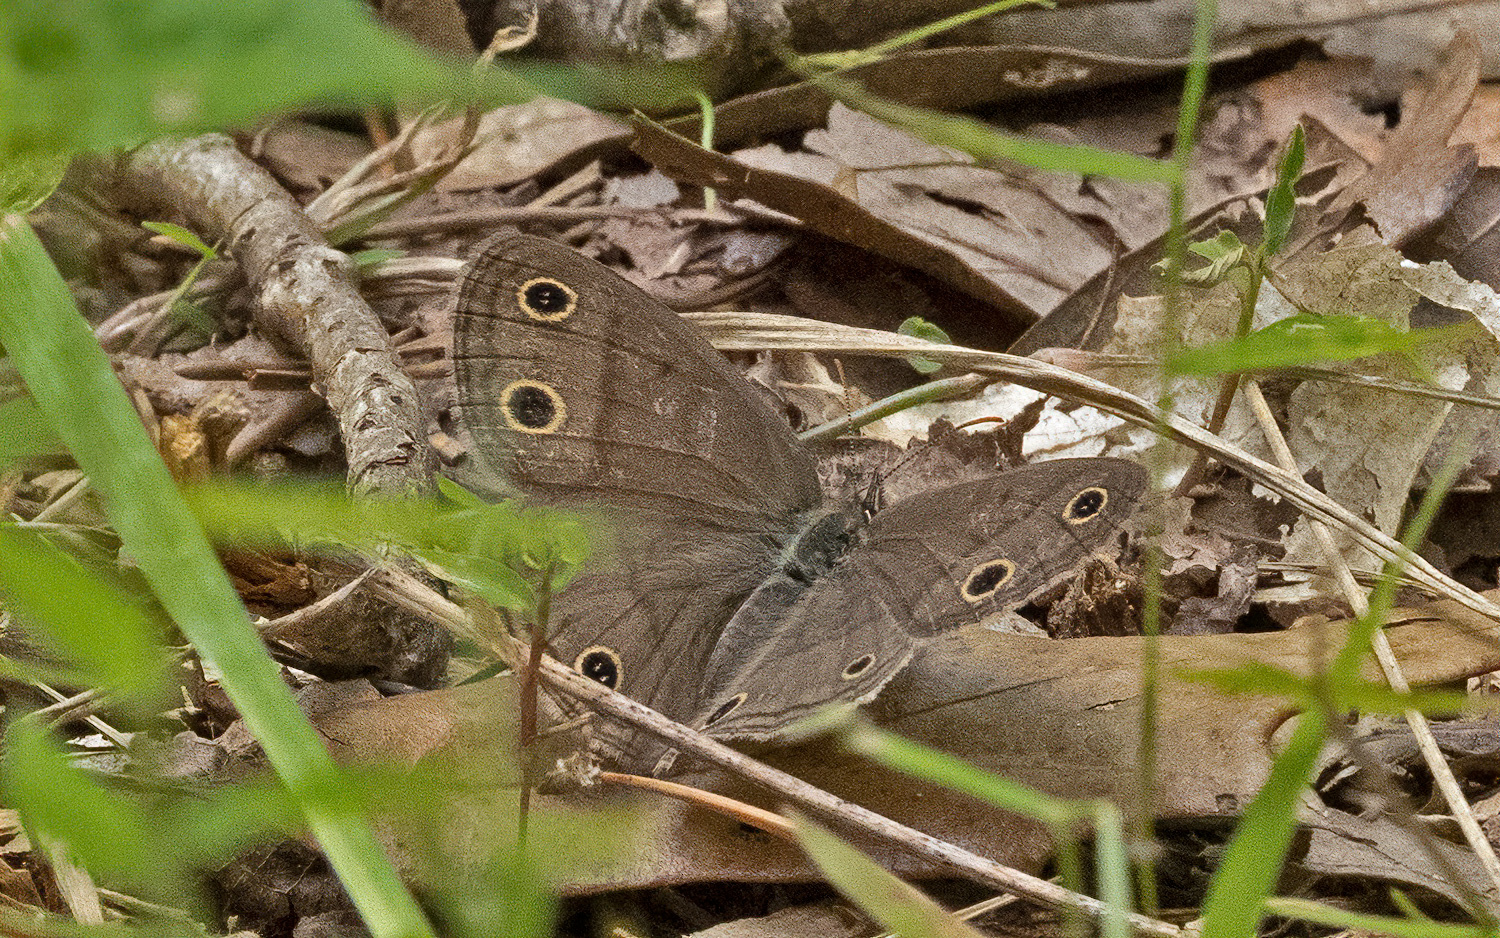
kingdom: Animalia
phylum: Arthropoda
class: Insecta
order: Lepidoptera
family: Nymphalidae
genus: Euptychia
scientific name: Euptychia cymela
